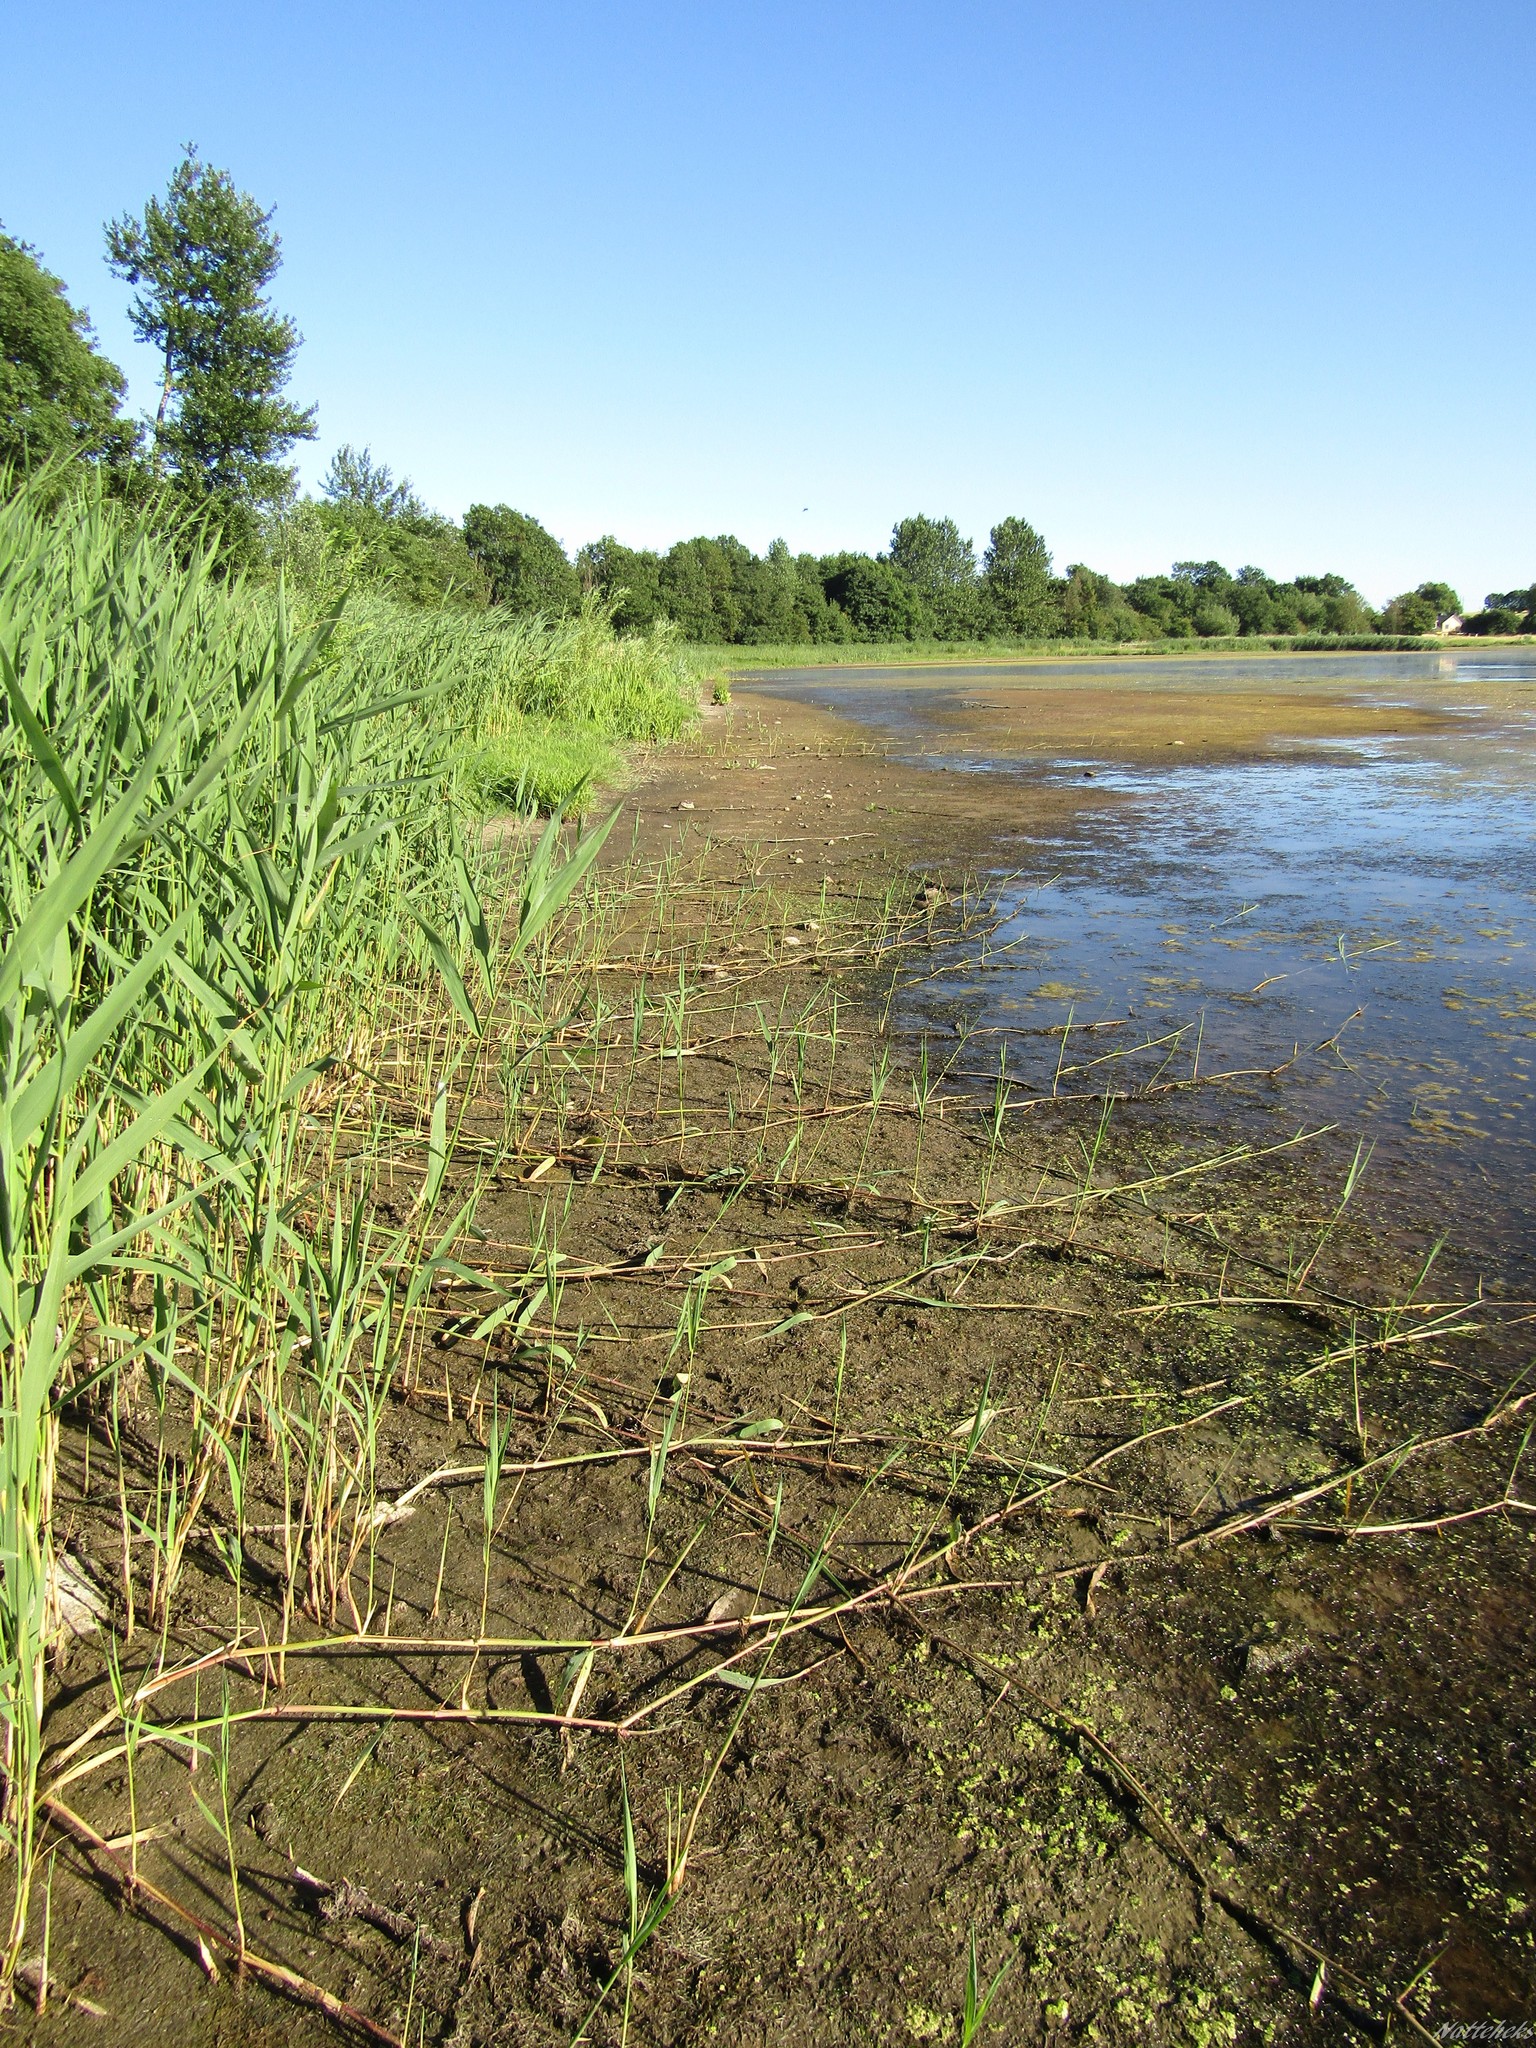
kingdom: Plantae
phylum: Tracheophyta
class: Liliopsida
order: Poales
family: Poaceae
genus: Phragmites
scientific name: Phragmites australis
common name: Common reed
